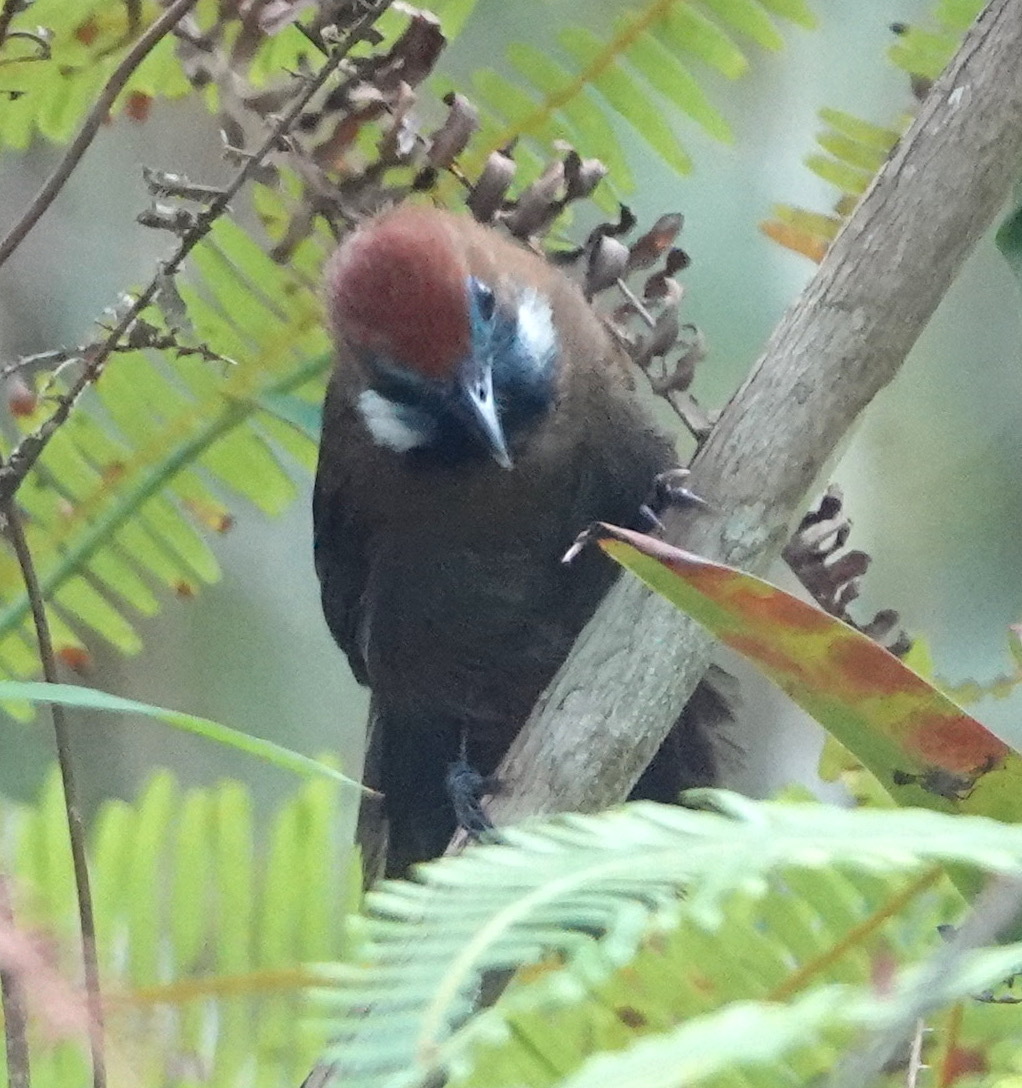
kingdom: Animalia
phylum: Chordata
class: Aves
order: Passeriformes
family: Timaliidae
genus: Macronus
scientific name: Macronus ptilosus
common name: Fluffy-backed tit-babbler
